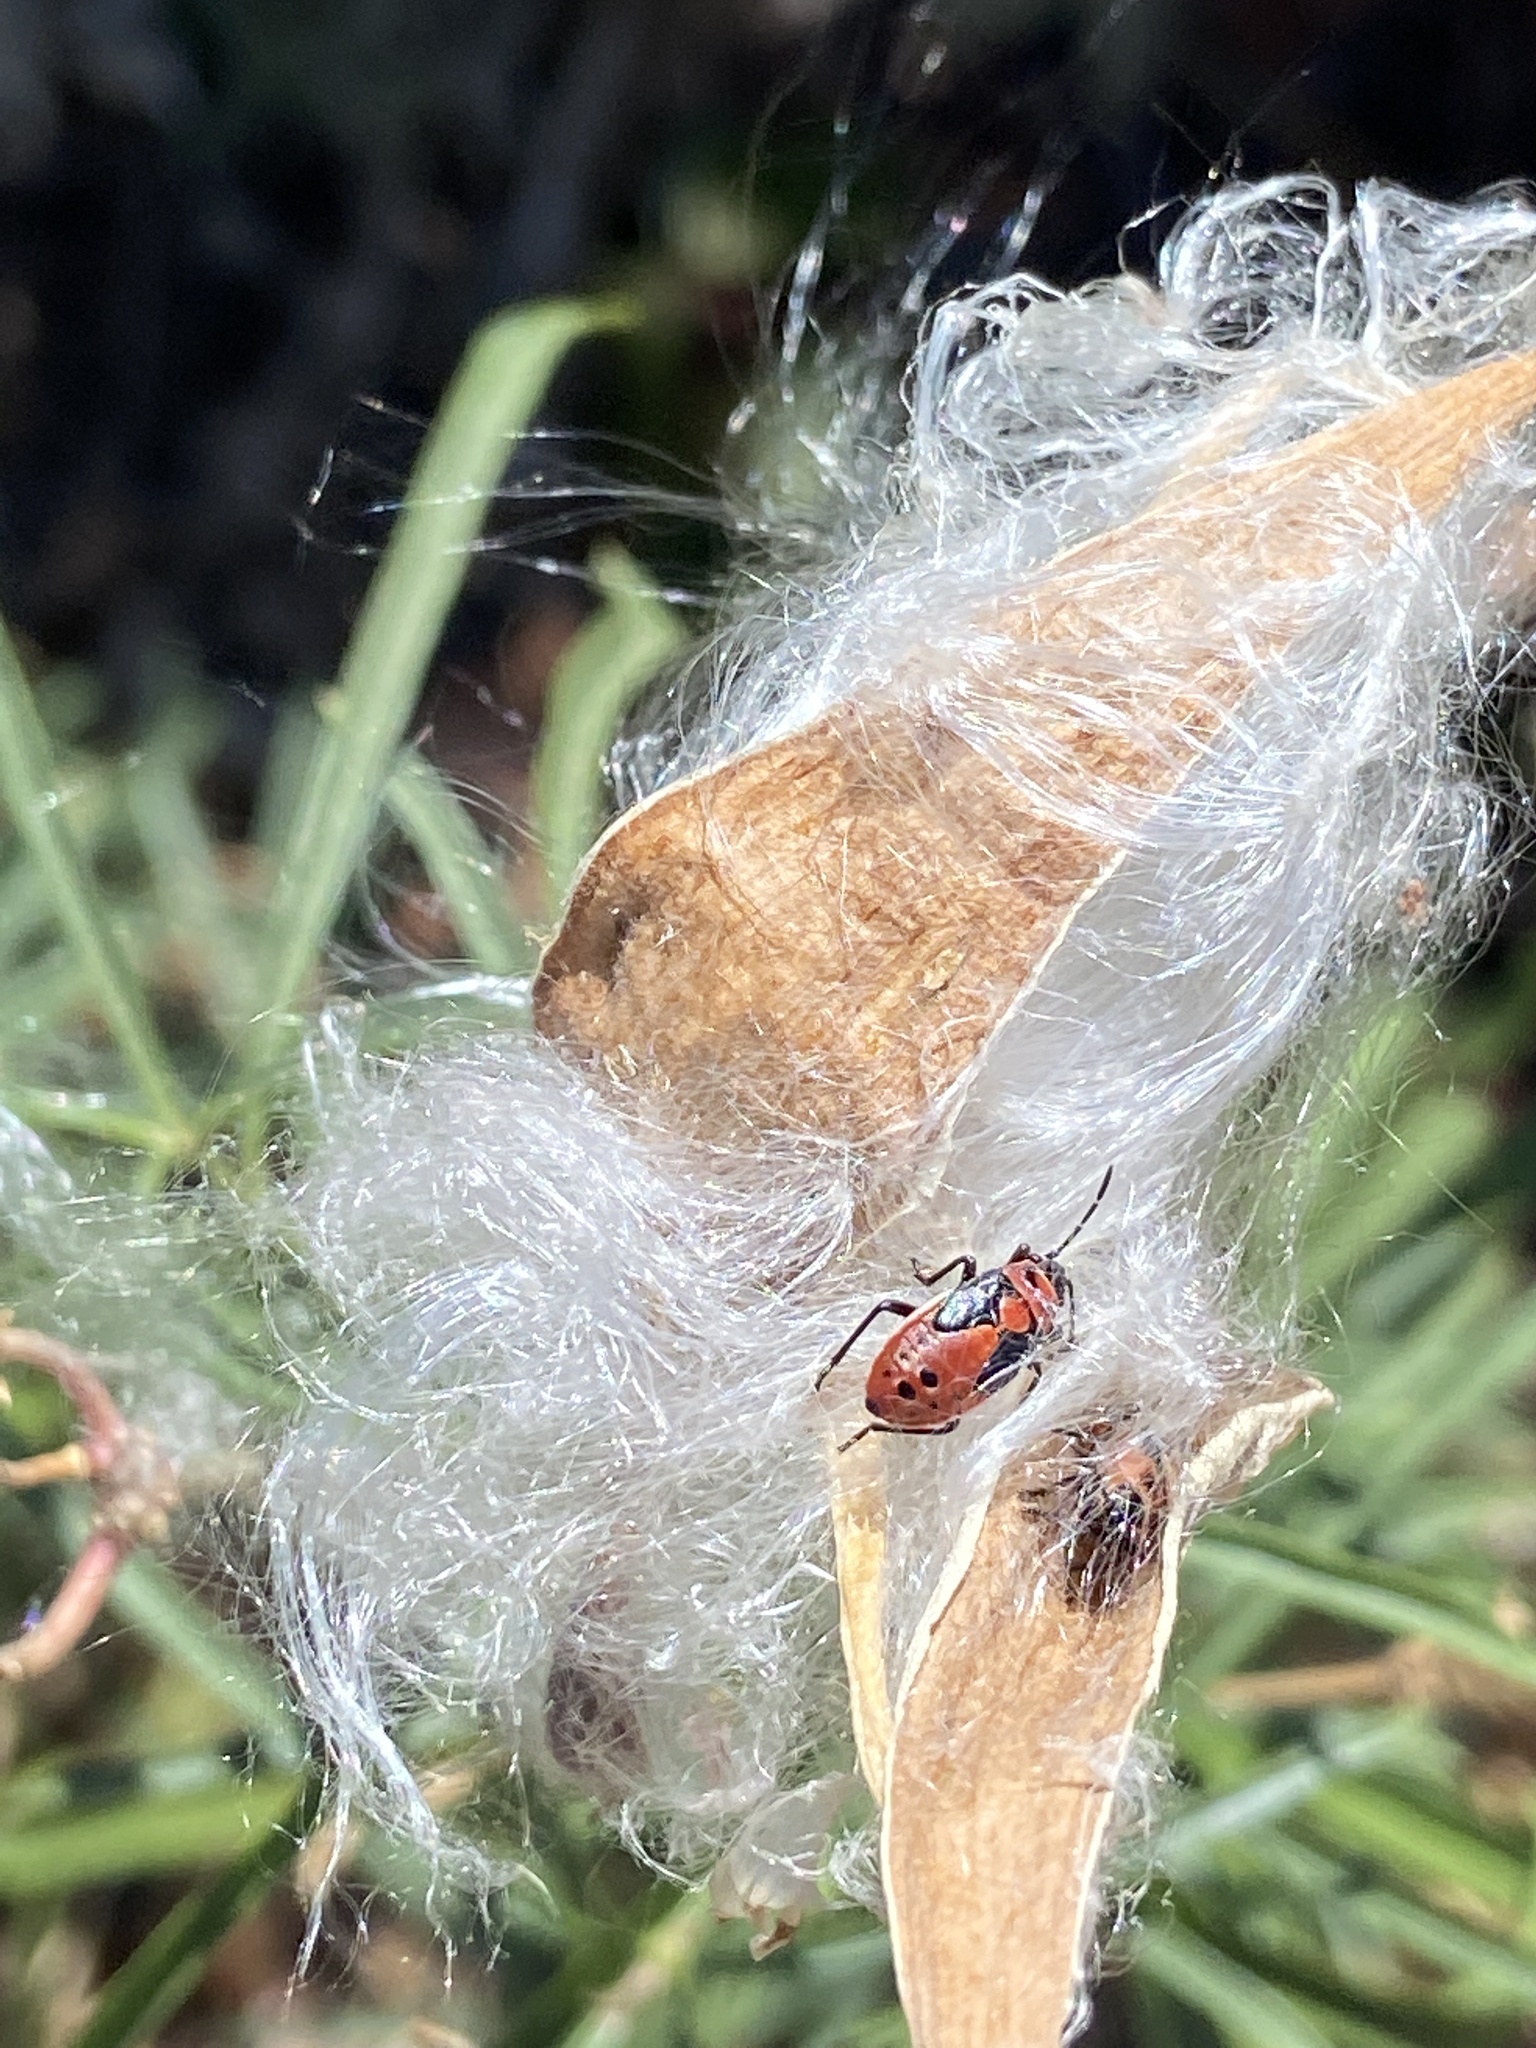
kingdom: Animalia
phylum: Arthropoda
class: Insecta
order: Hemiptera
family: Lygaeidae
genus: Lygaeus
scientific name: Lygaeus kalmii
